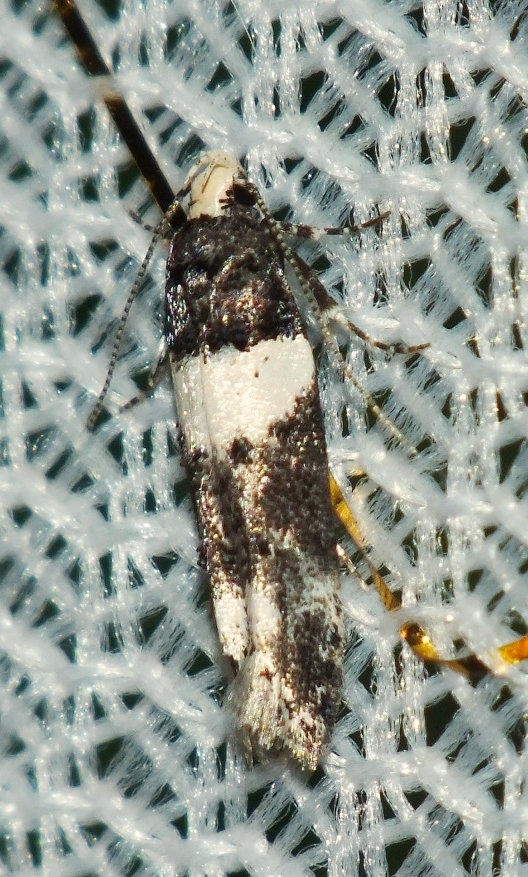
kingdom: Animalia
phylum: Arthropoda
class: Insecta
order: Lepidoptera
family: Gelechiidae
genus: Recurvaria
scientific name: Recurvaria leucatella
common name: White-barred groundling
